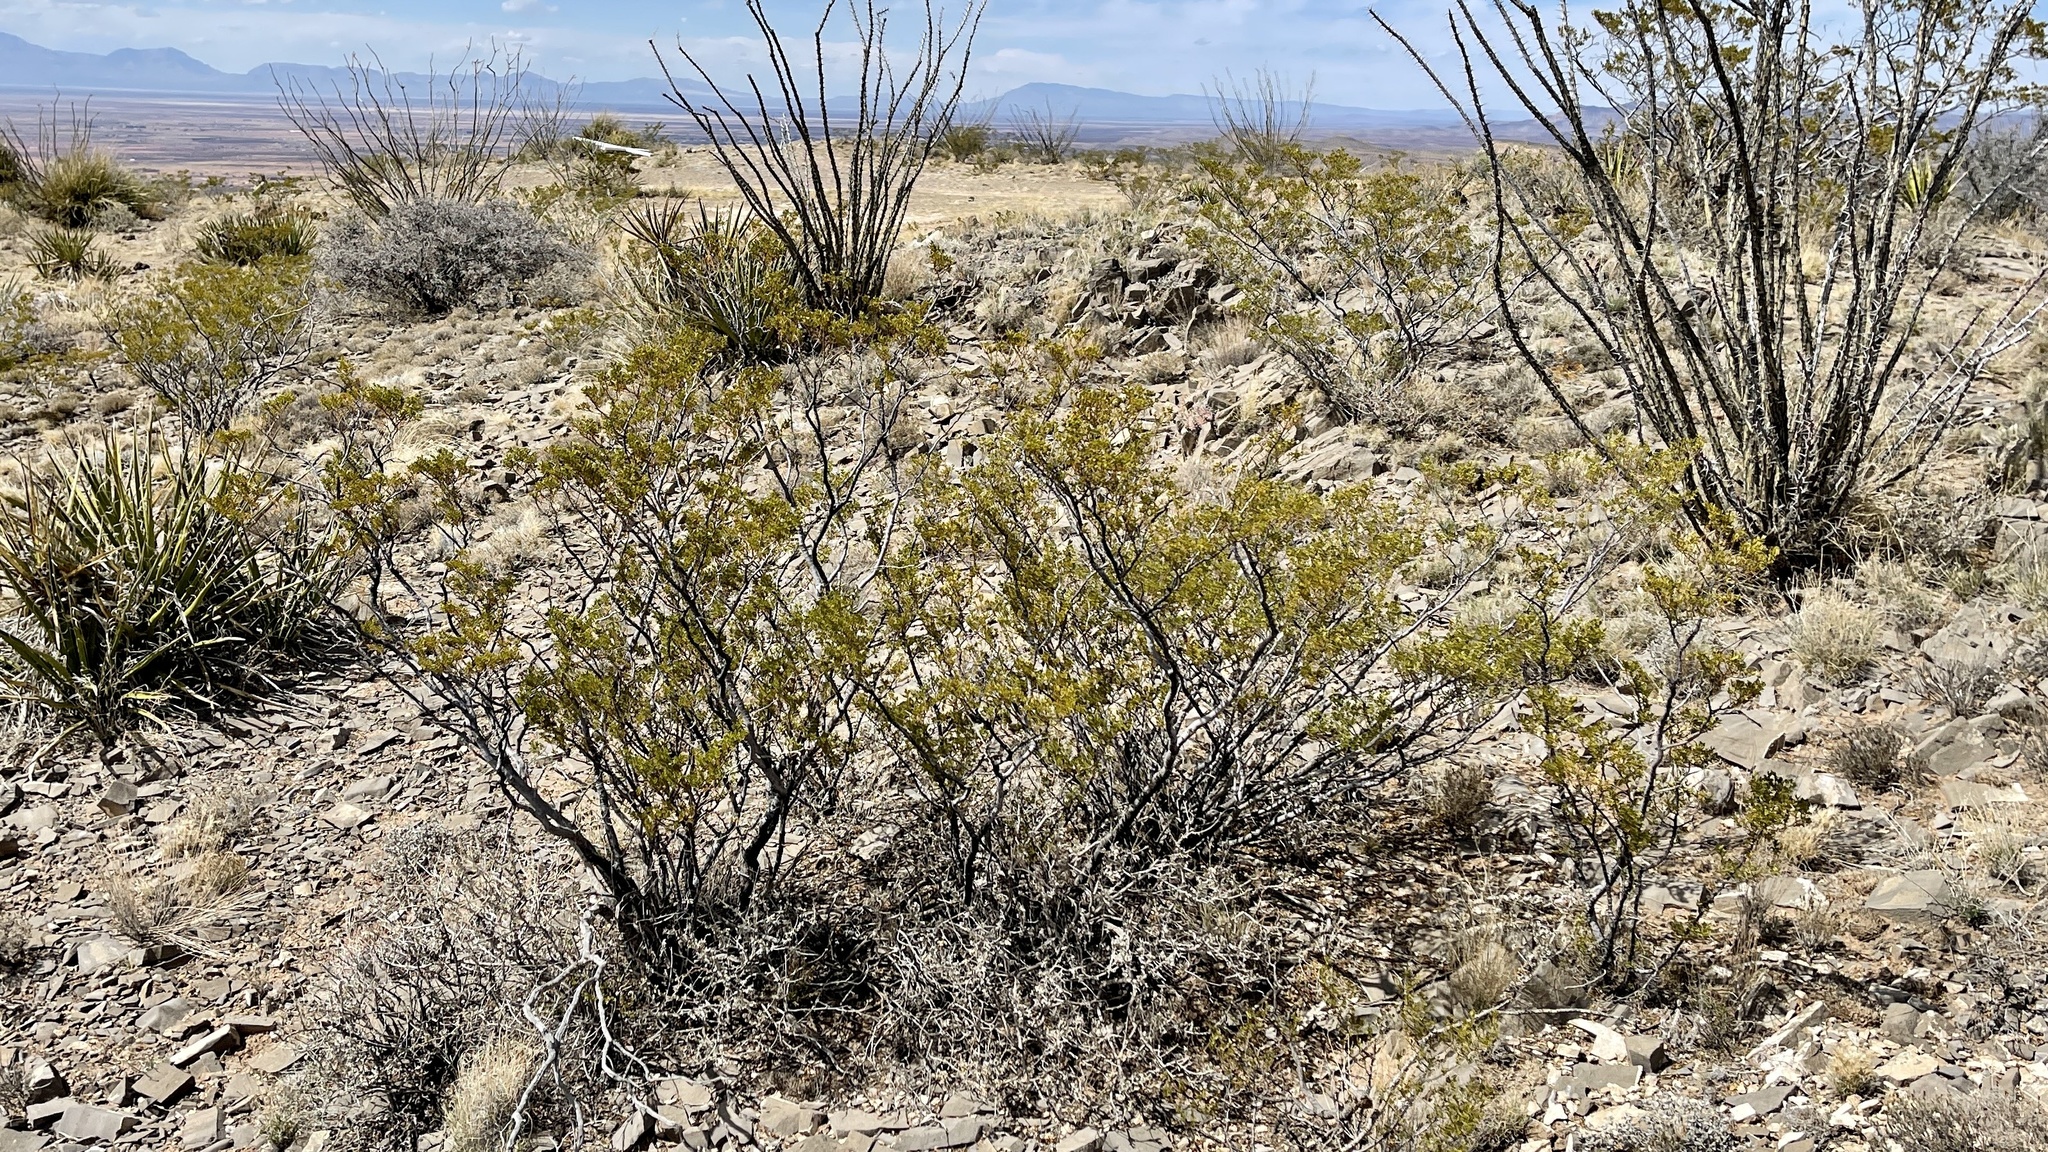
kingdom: Plantae
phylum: Tracheophyta
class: Magnoliopsida
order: Zygophyllales
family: Zygophyllaceae
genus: Larrea
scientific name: Larrea tridentata
